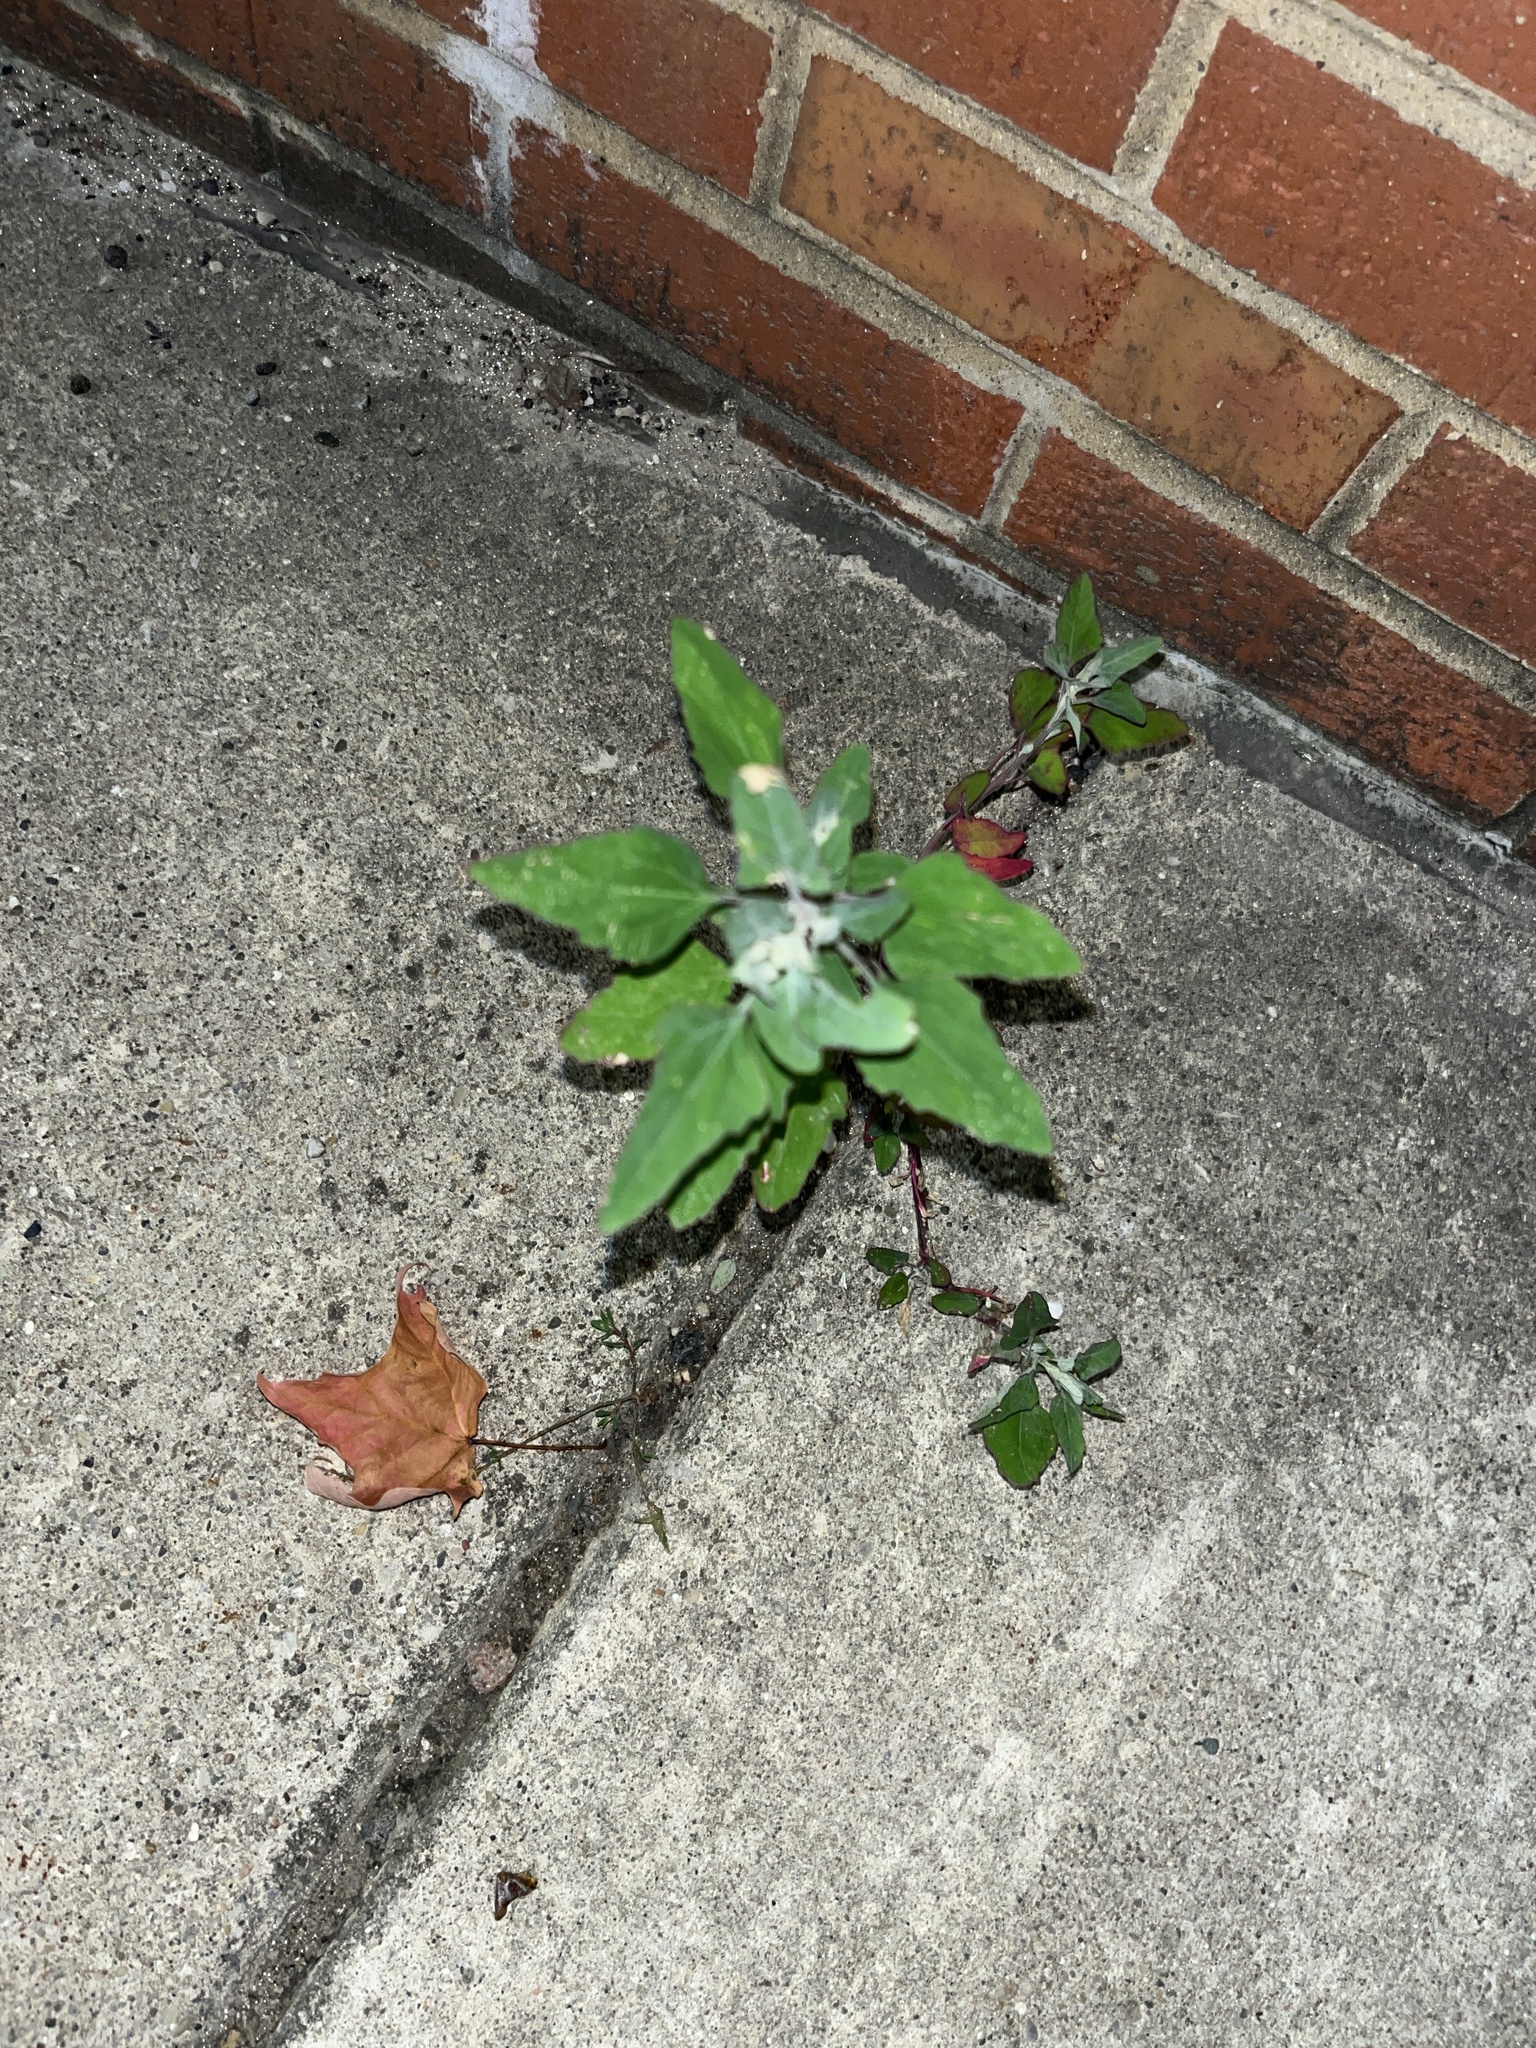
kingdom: Plantae
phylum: Tracheophyta
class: Magnoliopsida
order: Caryophyllales
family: Amaranthaceae
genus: Chenopodium
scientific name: Chenopodium album
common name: Fat-hen
